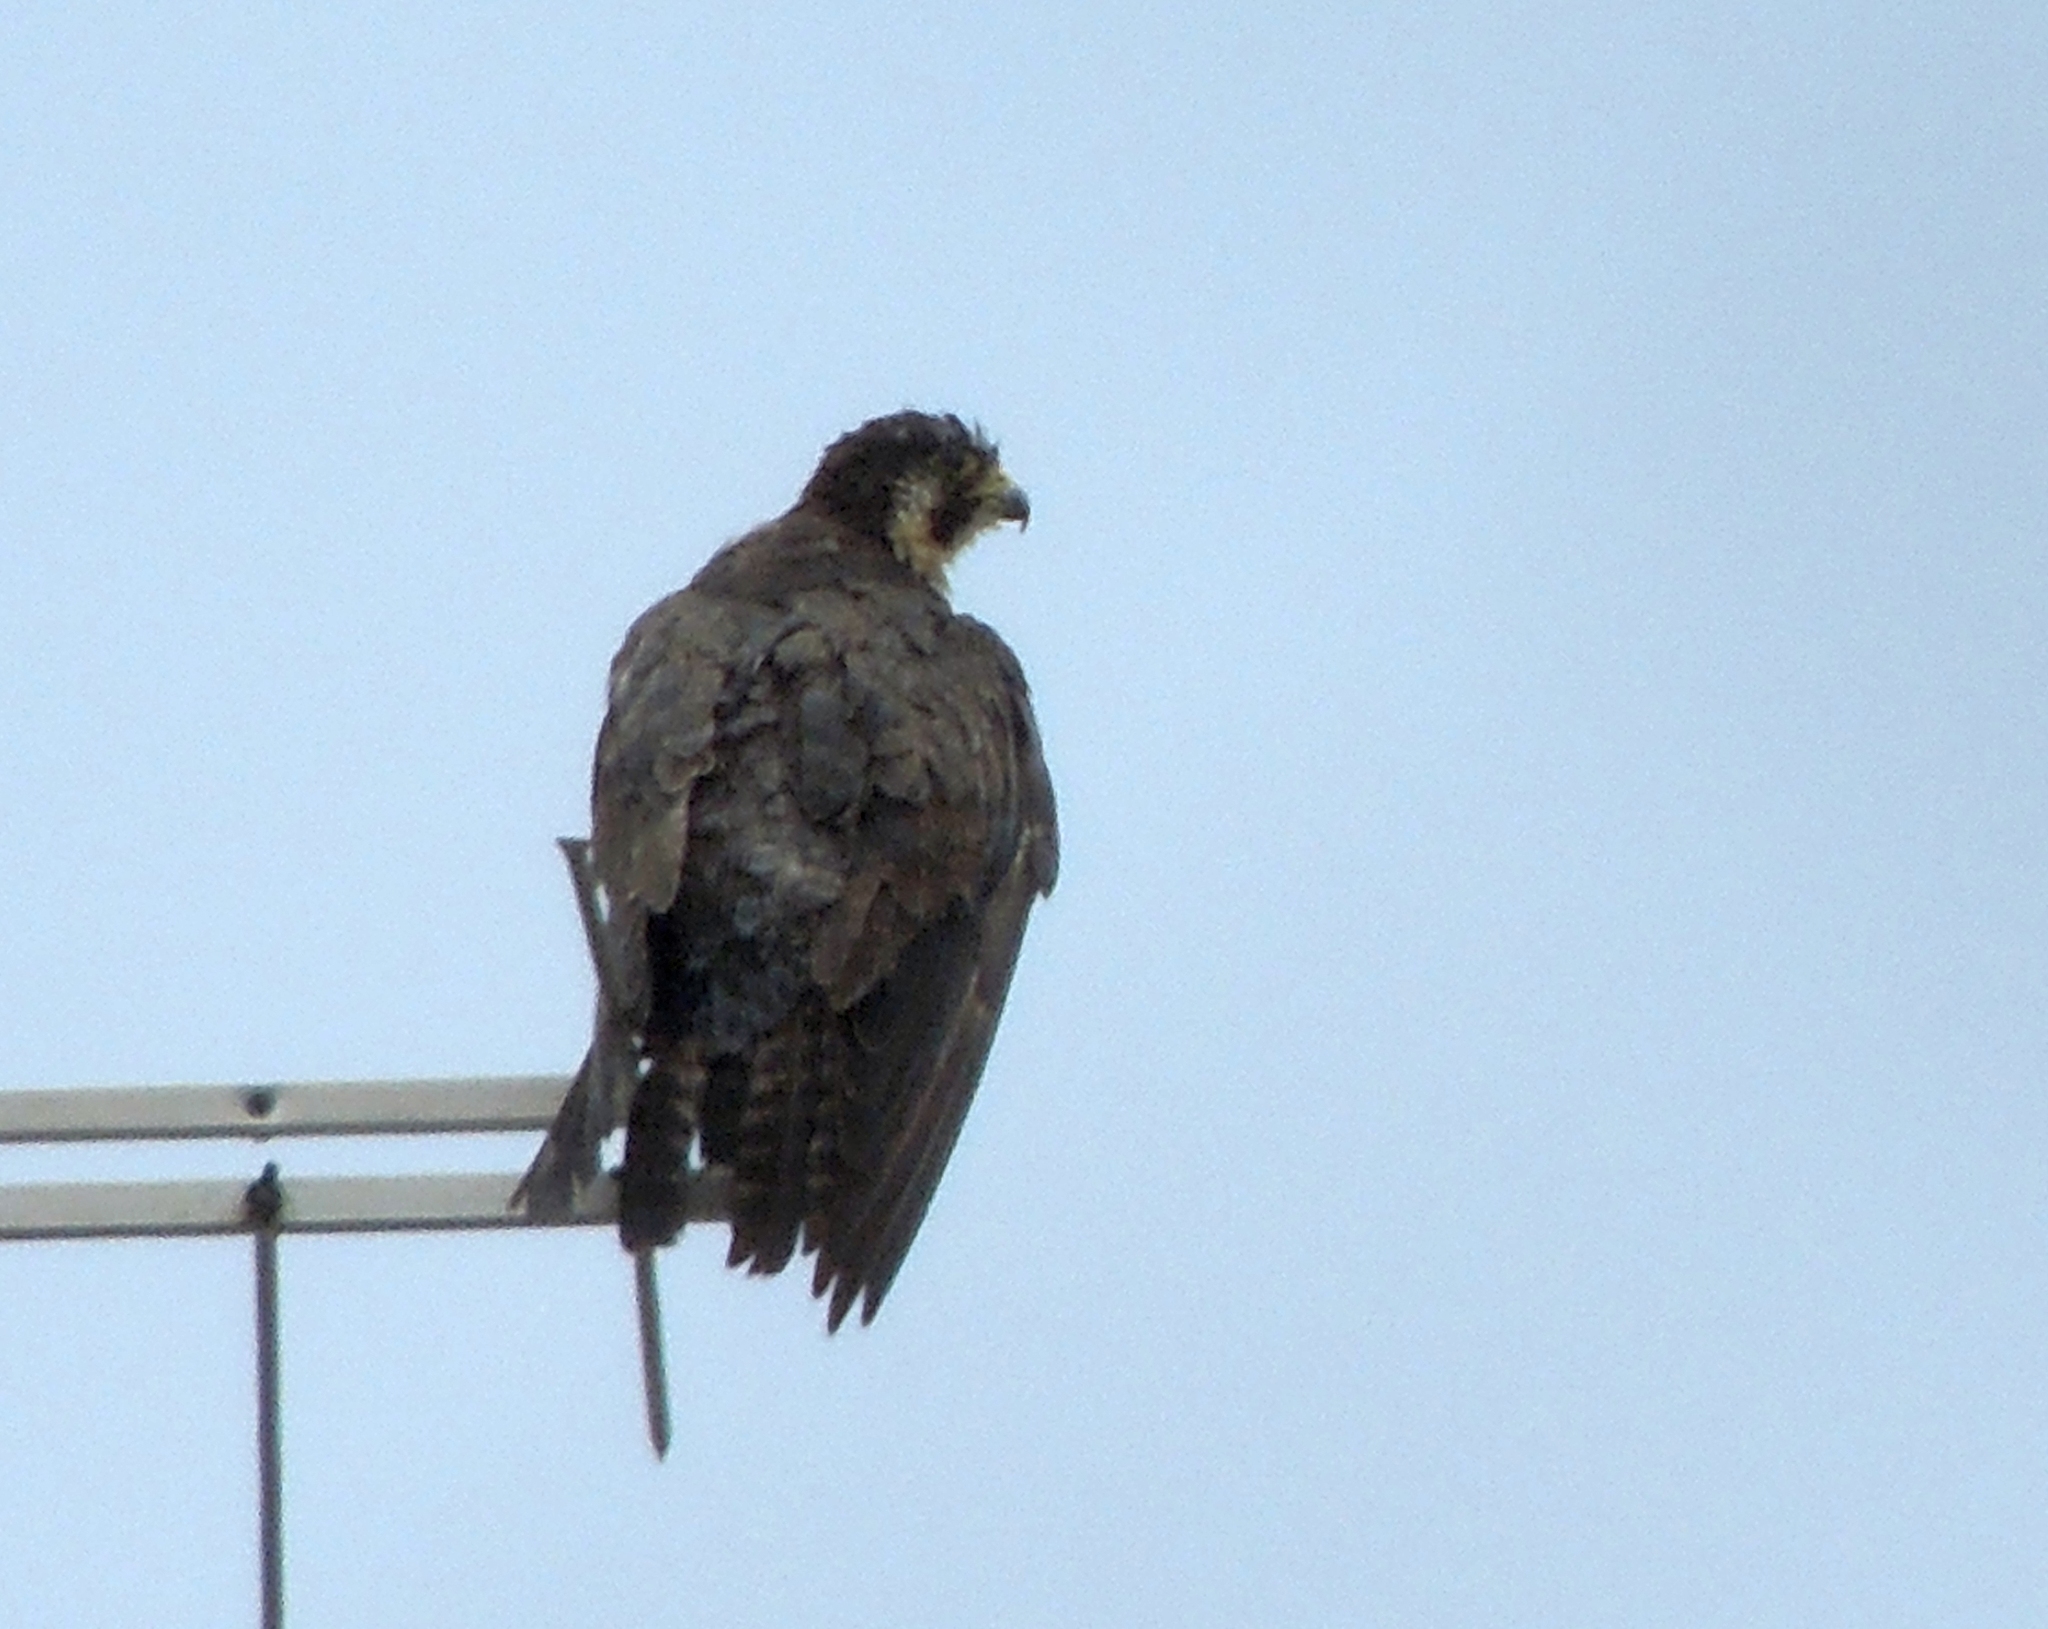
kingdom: Animalia
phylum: Chordata
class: Aves
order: Falconiformes
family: Falconidae
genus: Falco
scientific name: Falco peregrinus
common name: Peregrine falcon
